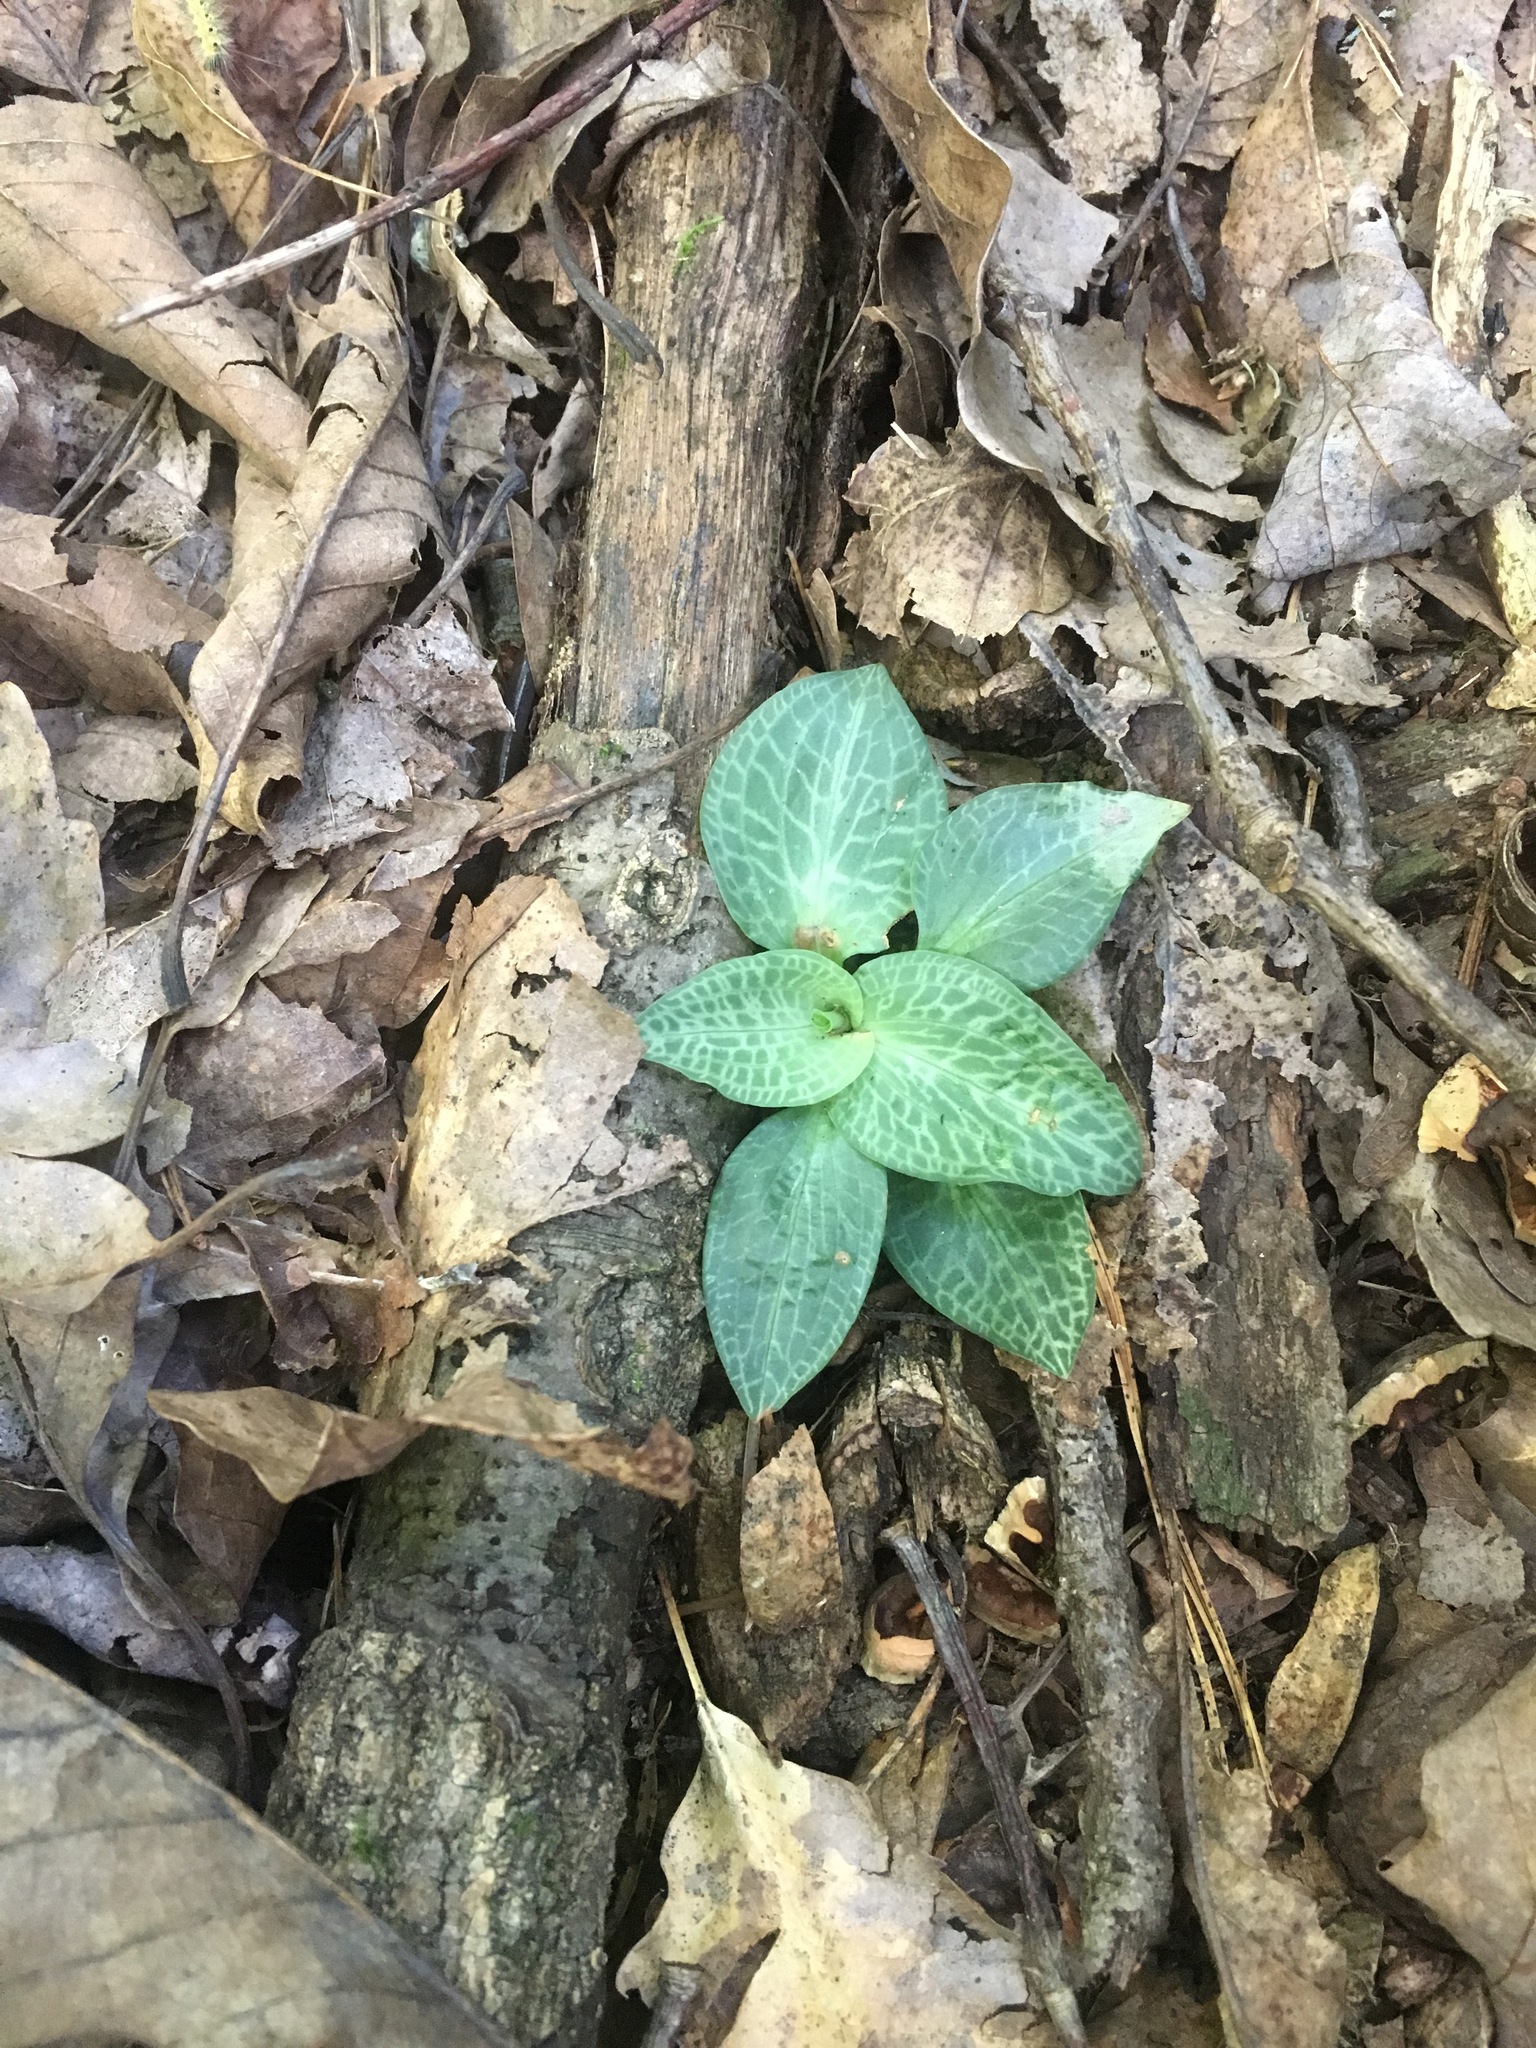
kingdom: Plantae
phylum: Tracheophyta
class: Liliopsida
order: Asparagales
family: Orchidaceae
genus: Goodyera
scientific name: Goodyera tesselata
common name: Checkered rattlesnake-plantain
